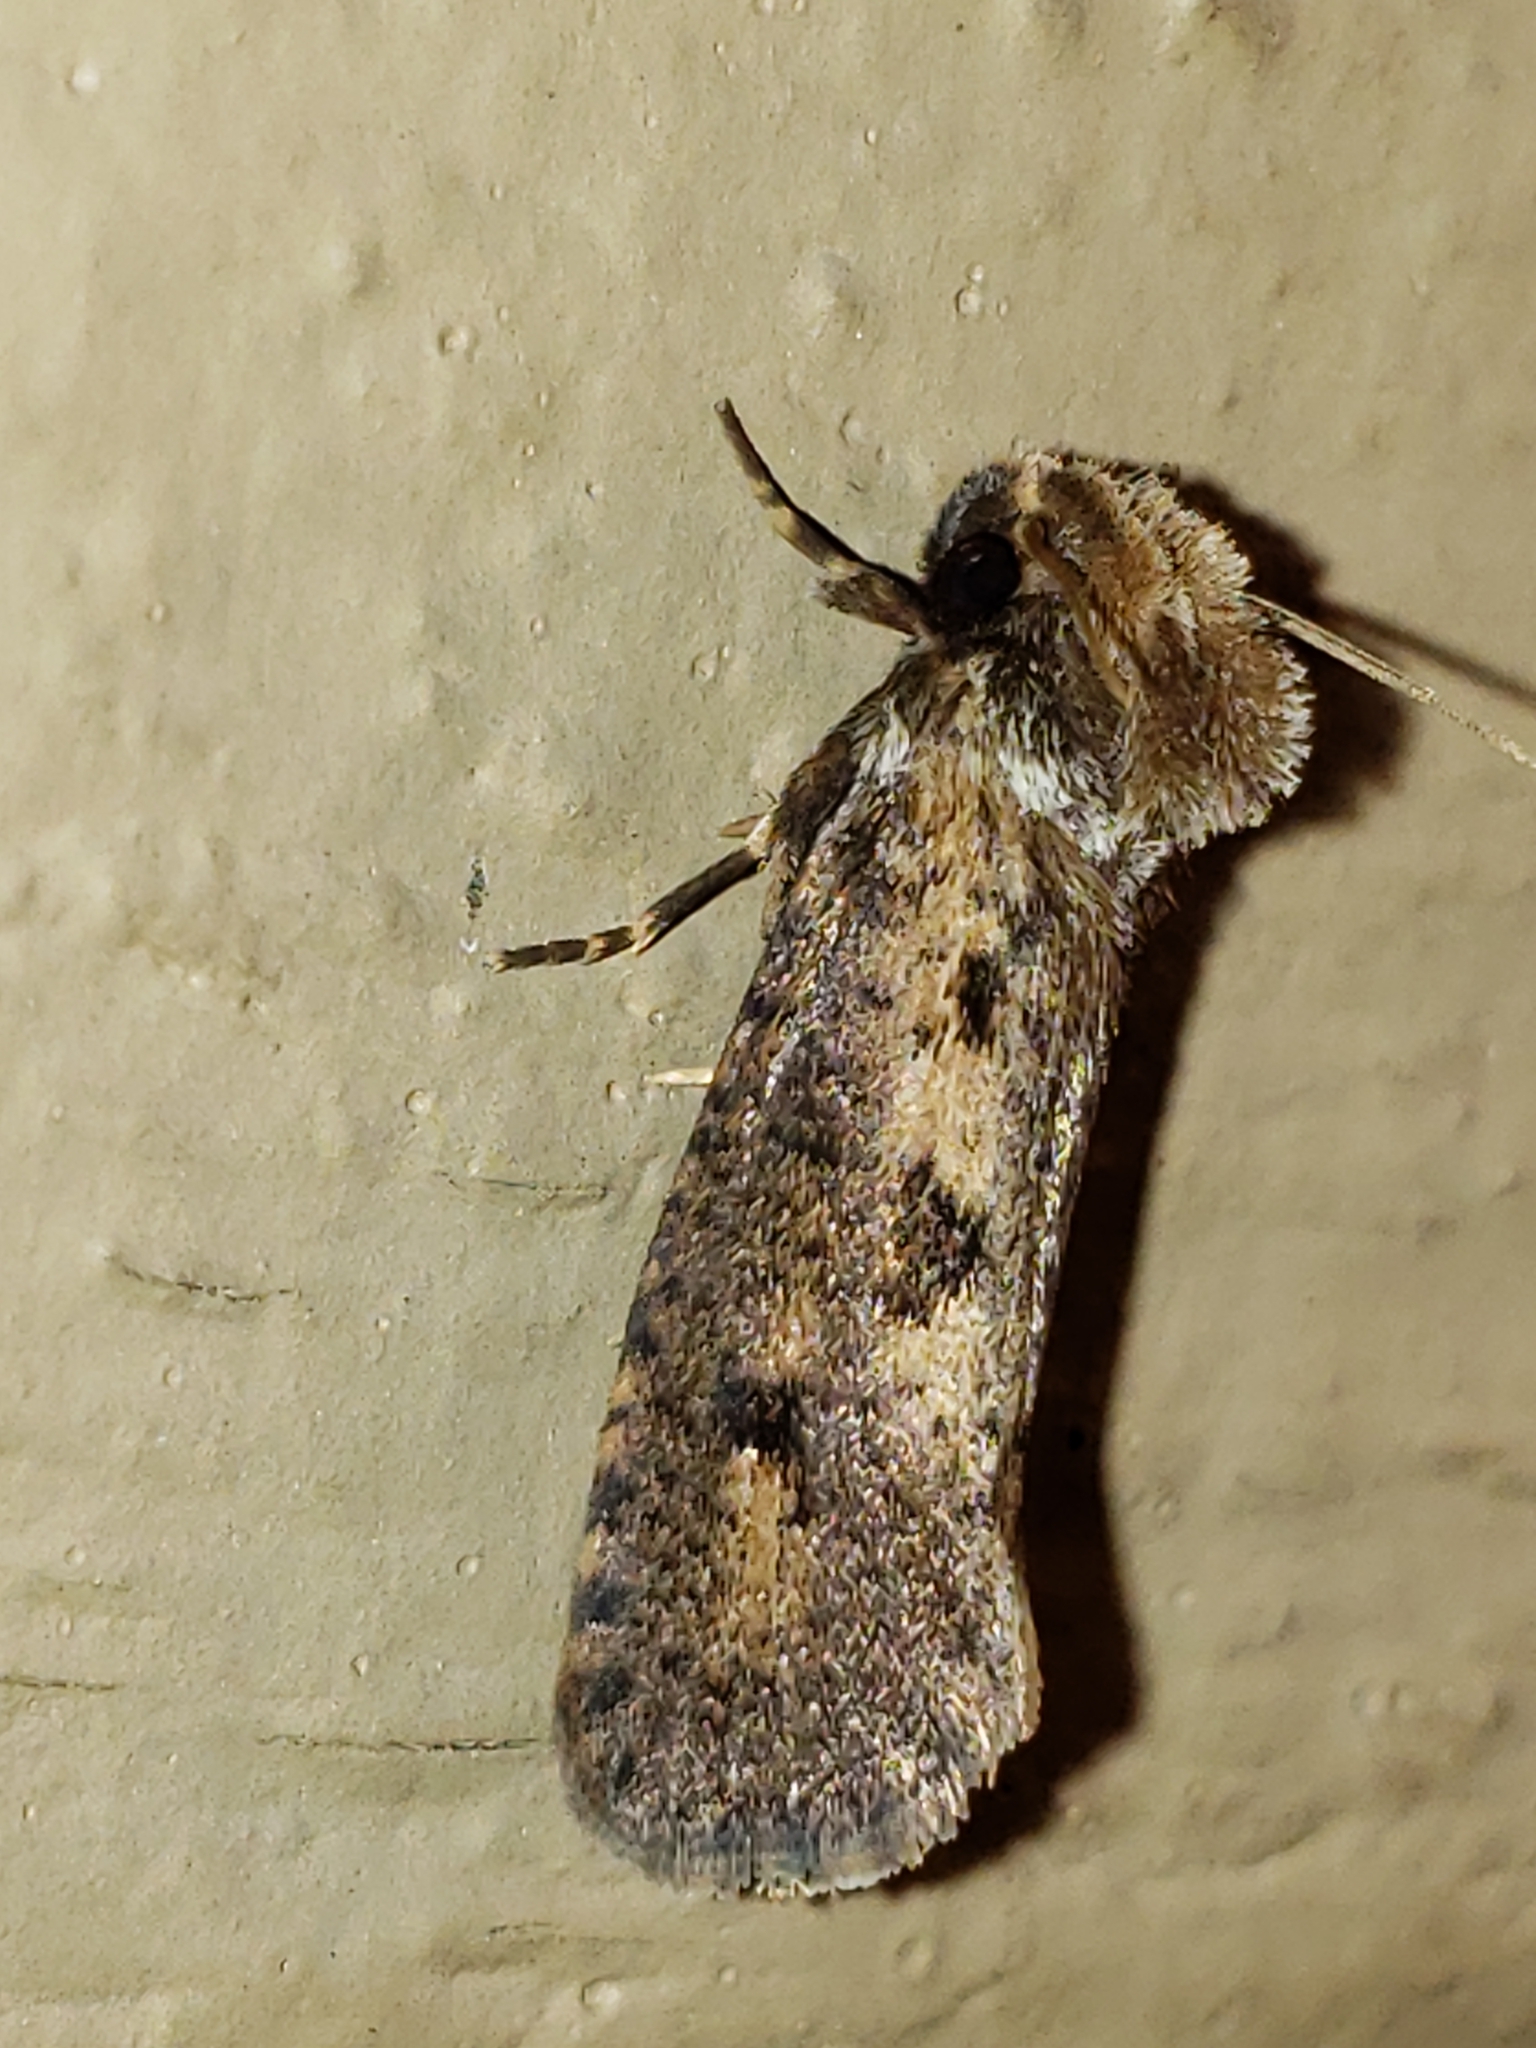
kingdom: Animalia
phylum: Arthropoda
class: Insecta
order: Lepidoptera
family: Tineidae
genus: Acrolophus
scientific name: Acrolophus popeanella
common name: Clemens' grass tubeworm moth
